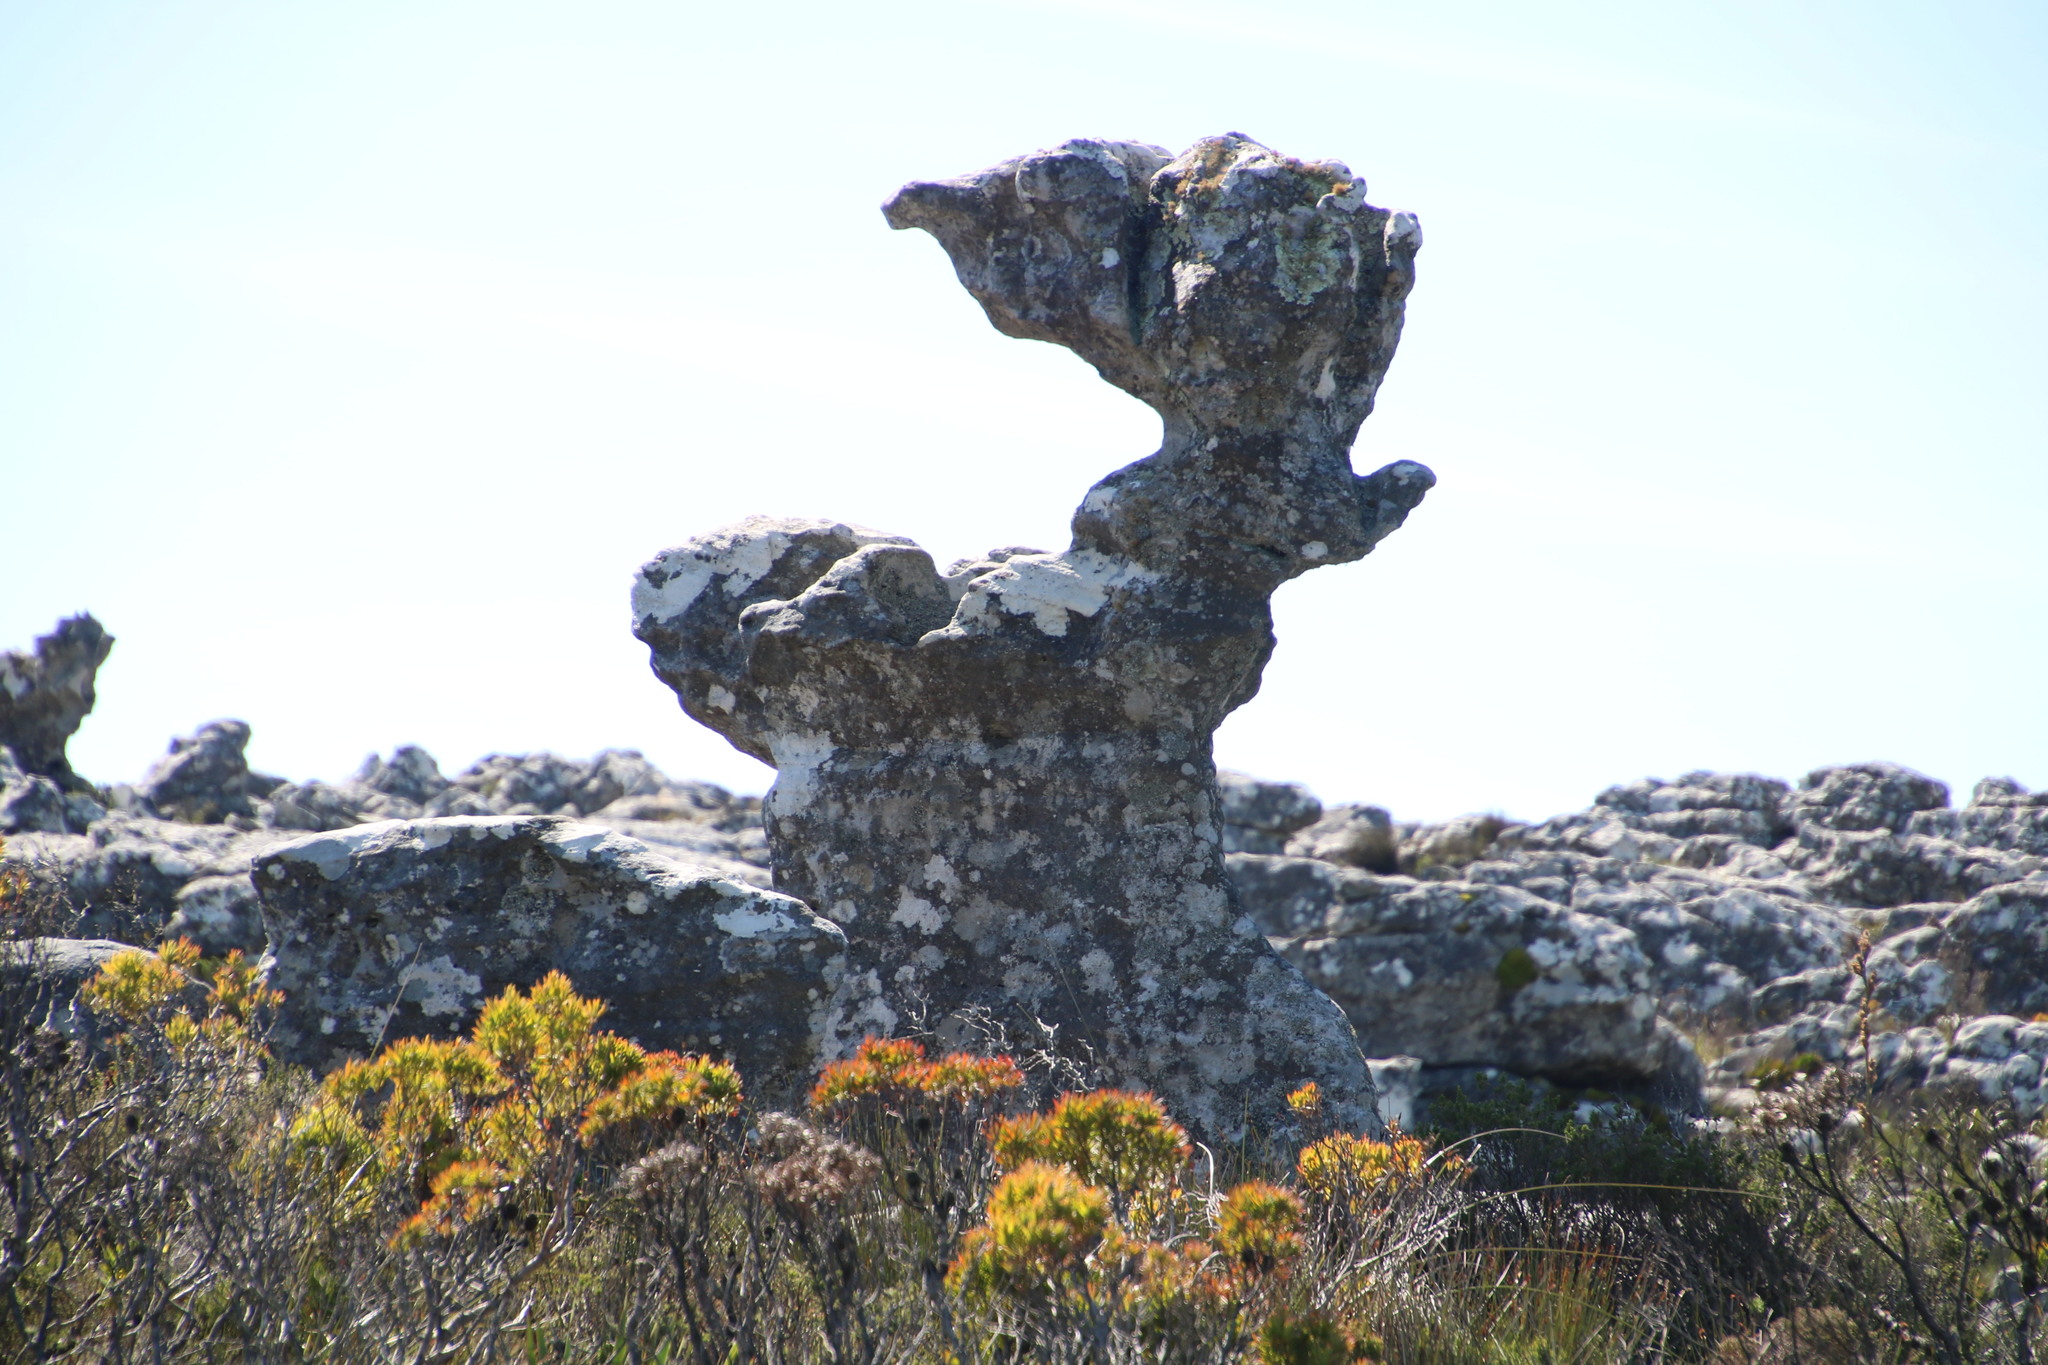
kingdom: Plantae
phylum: Tracheophyta
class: Magnoliopsida
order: Proteales
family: Proteaceae
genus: Leucadendron
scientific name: Leucadendron xanthoconus
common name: Sickle-leaf conebush
